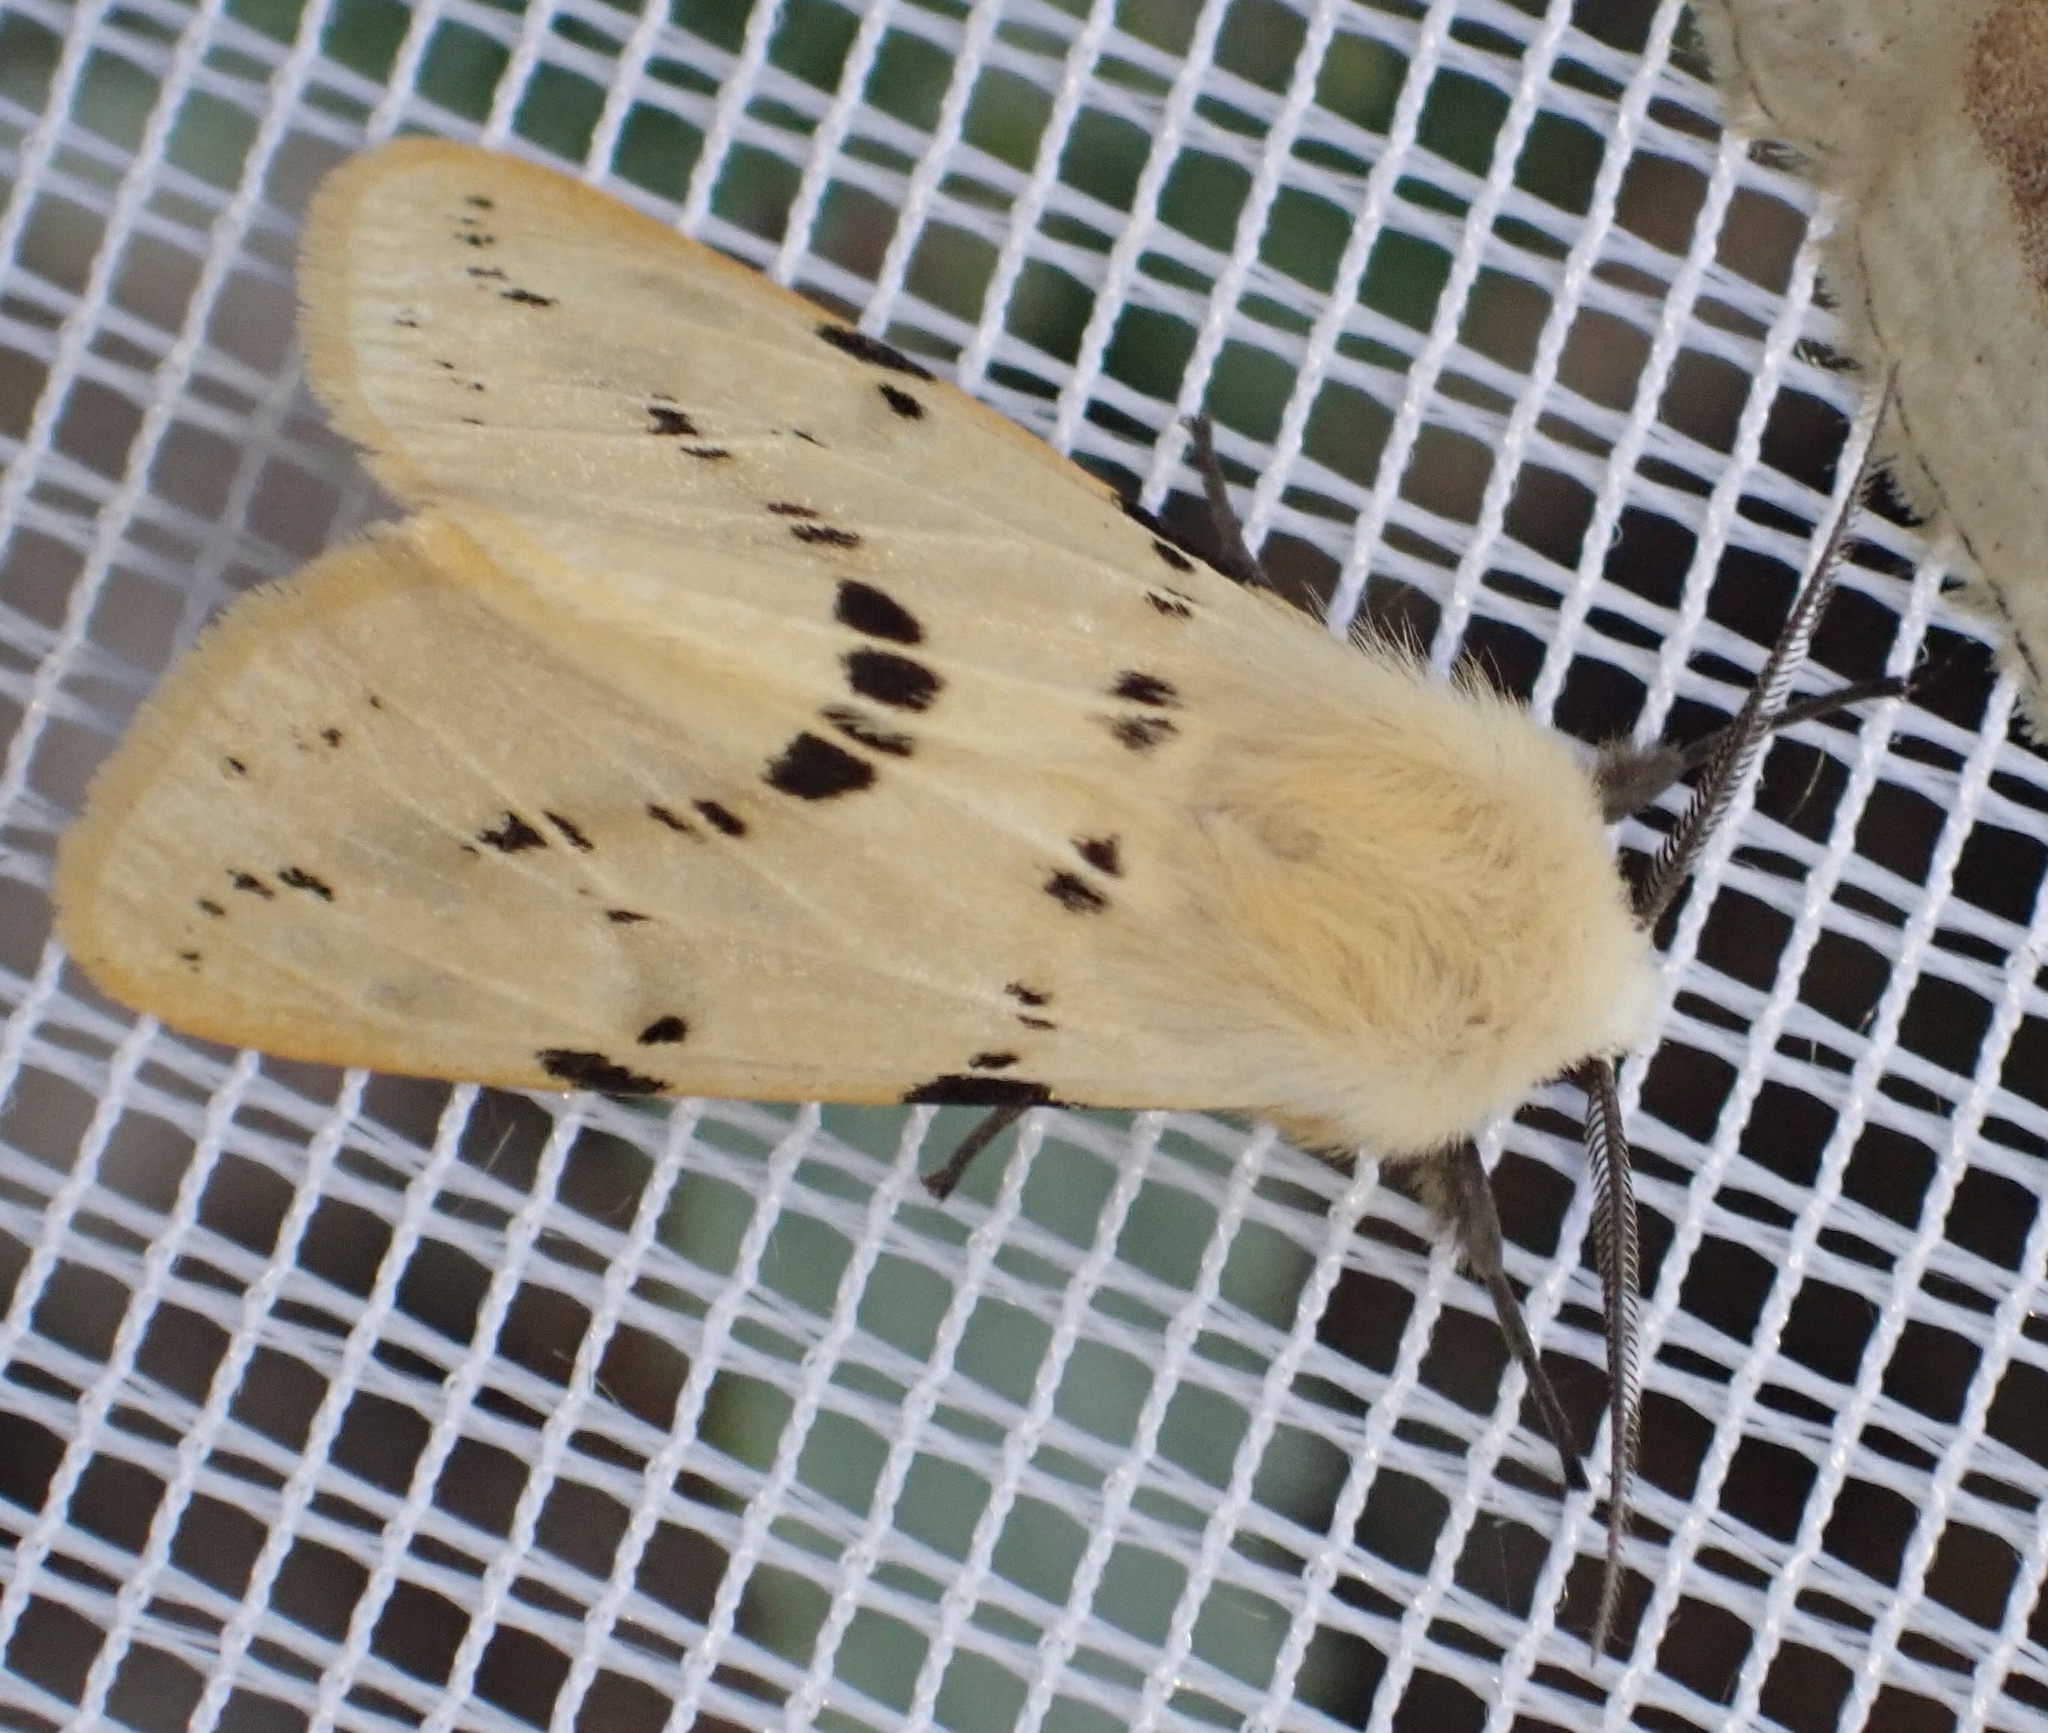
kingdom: Animalia
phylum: Arthropoda
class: Insecta
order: Lepidoptera
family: Erebidae
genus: Spilarctia
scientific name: Spilarctia lutea
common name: Buff ermine
